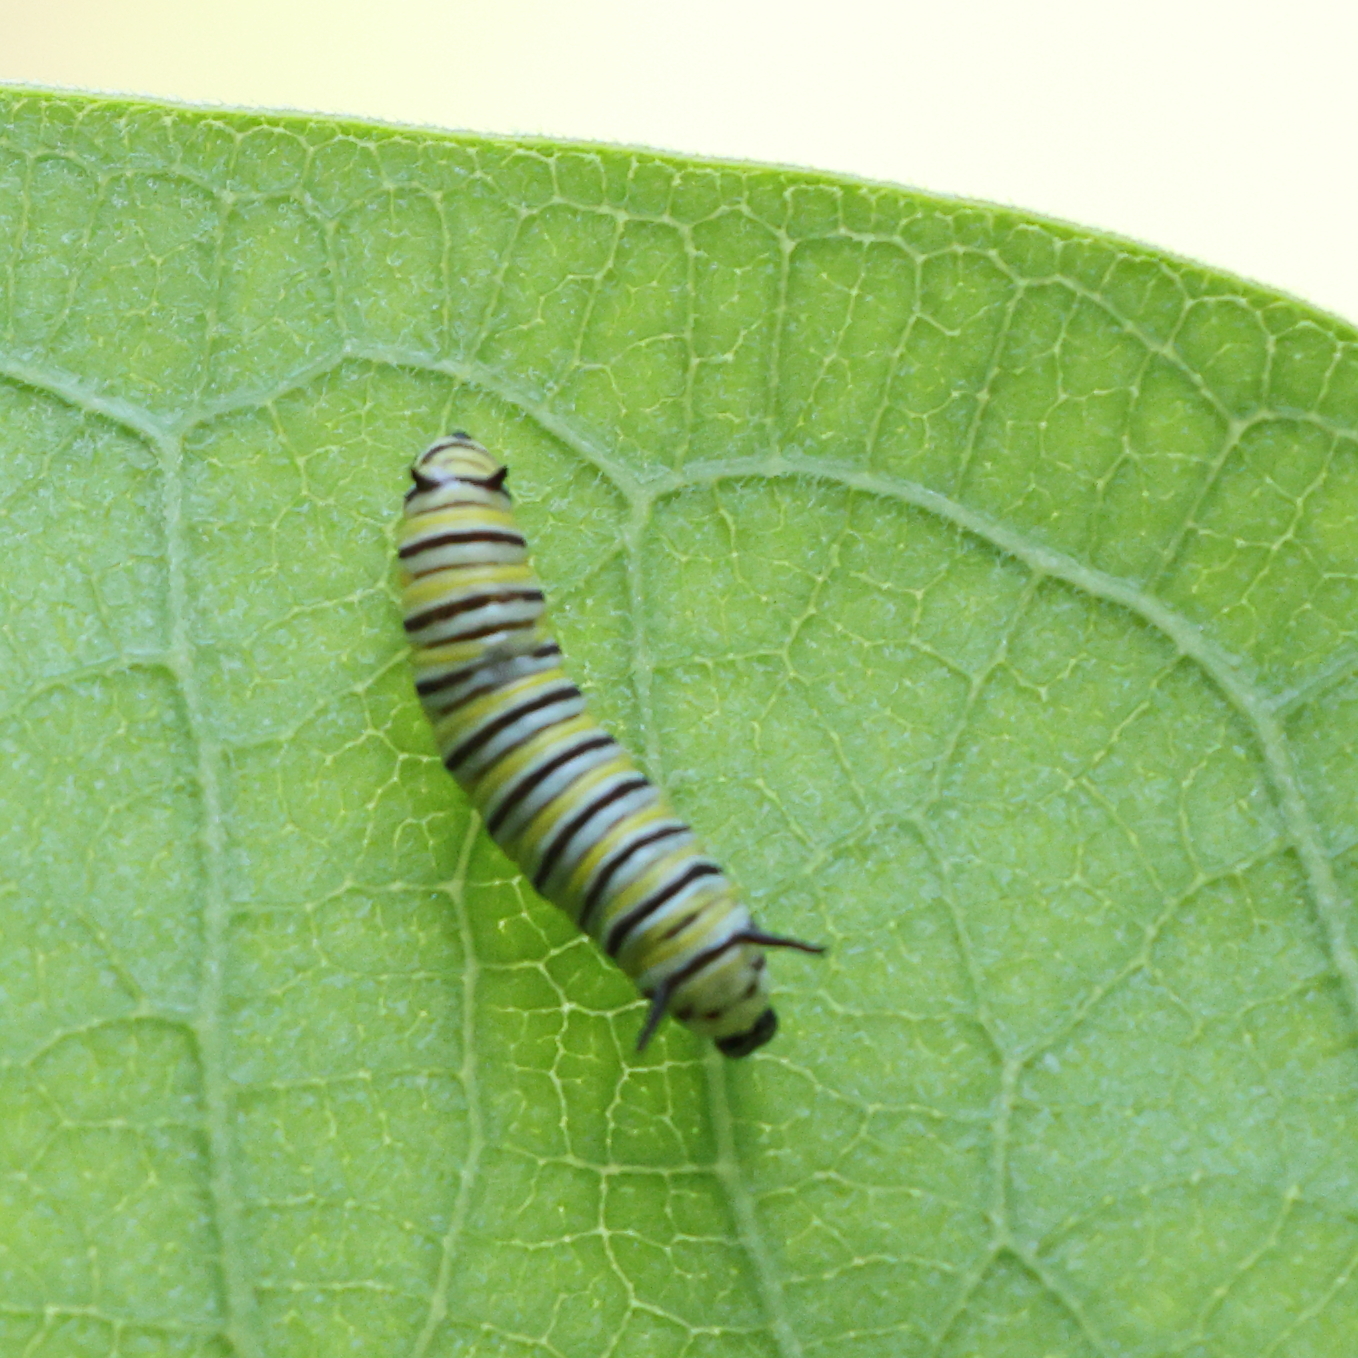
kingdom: Animalia
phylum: Arthropoda
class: Insecta
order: Lepidoptera
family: Nymphalidae
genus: Danaus
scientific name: Danaus plexippus
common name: Monarch
